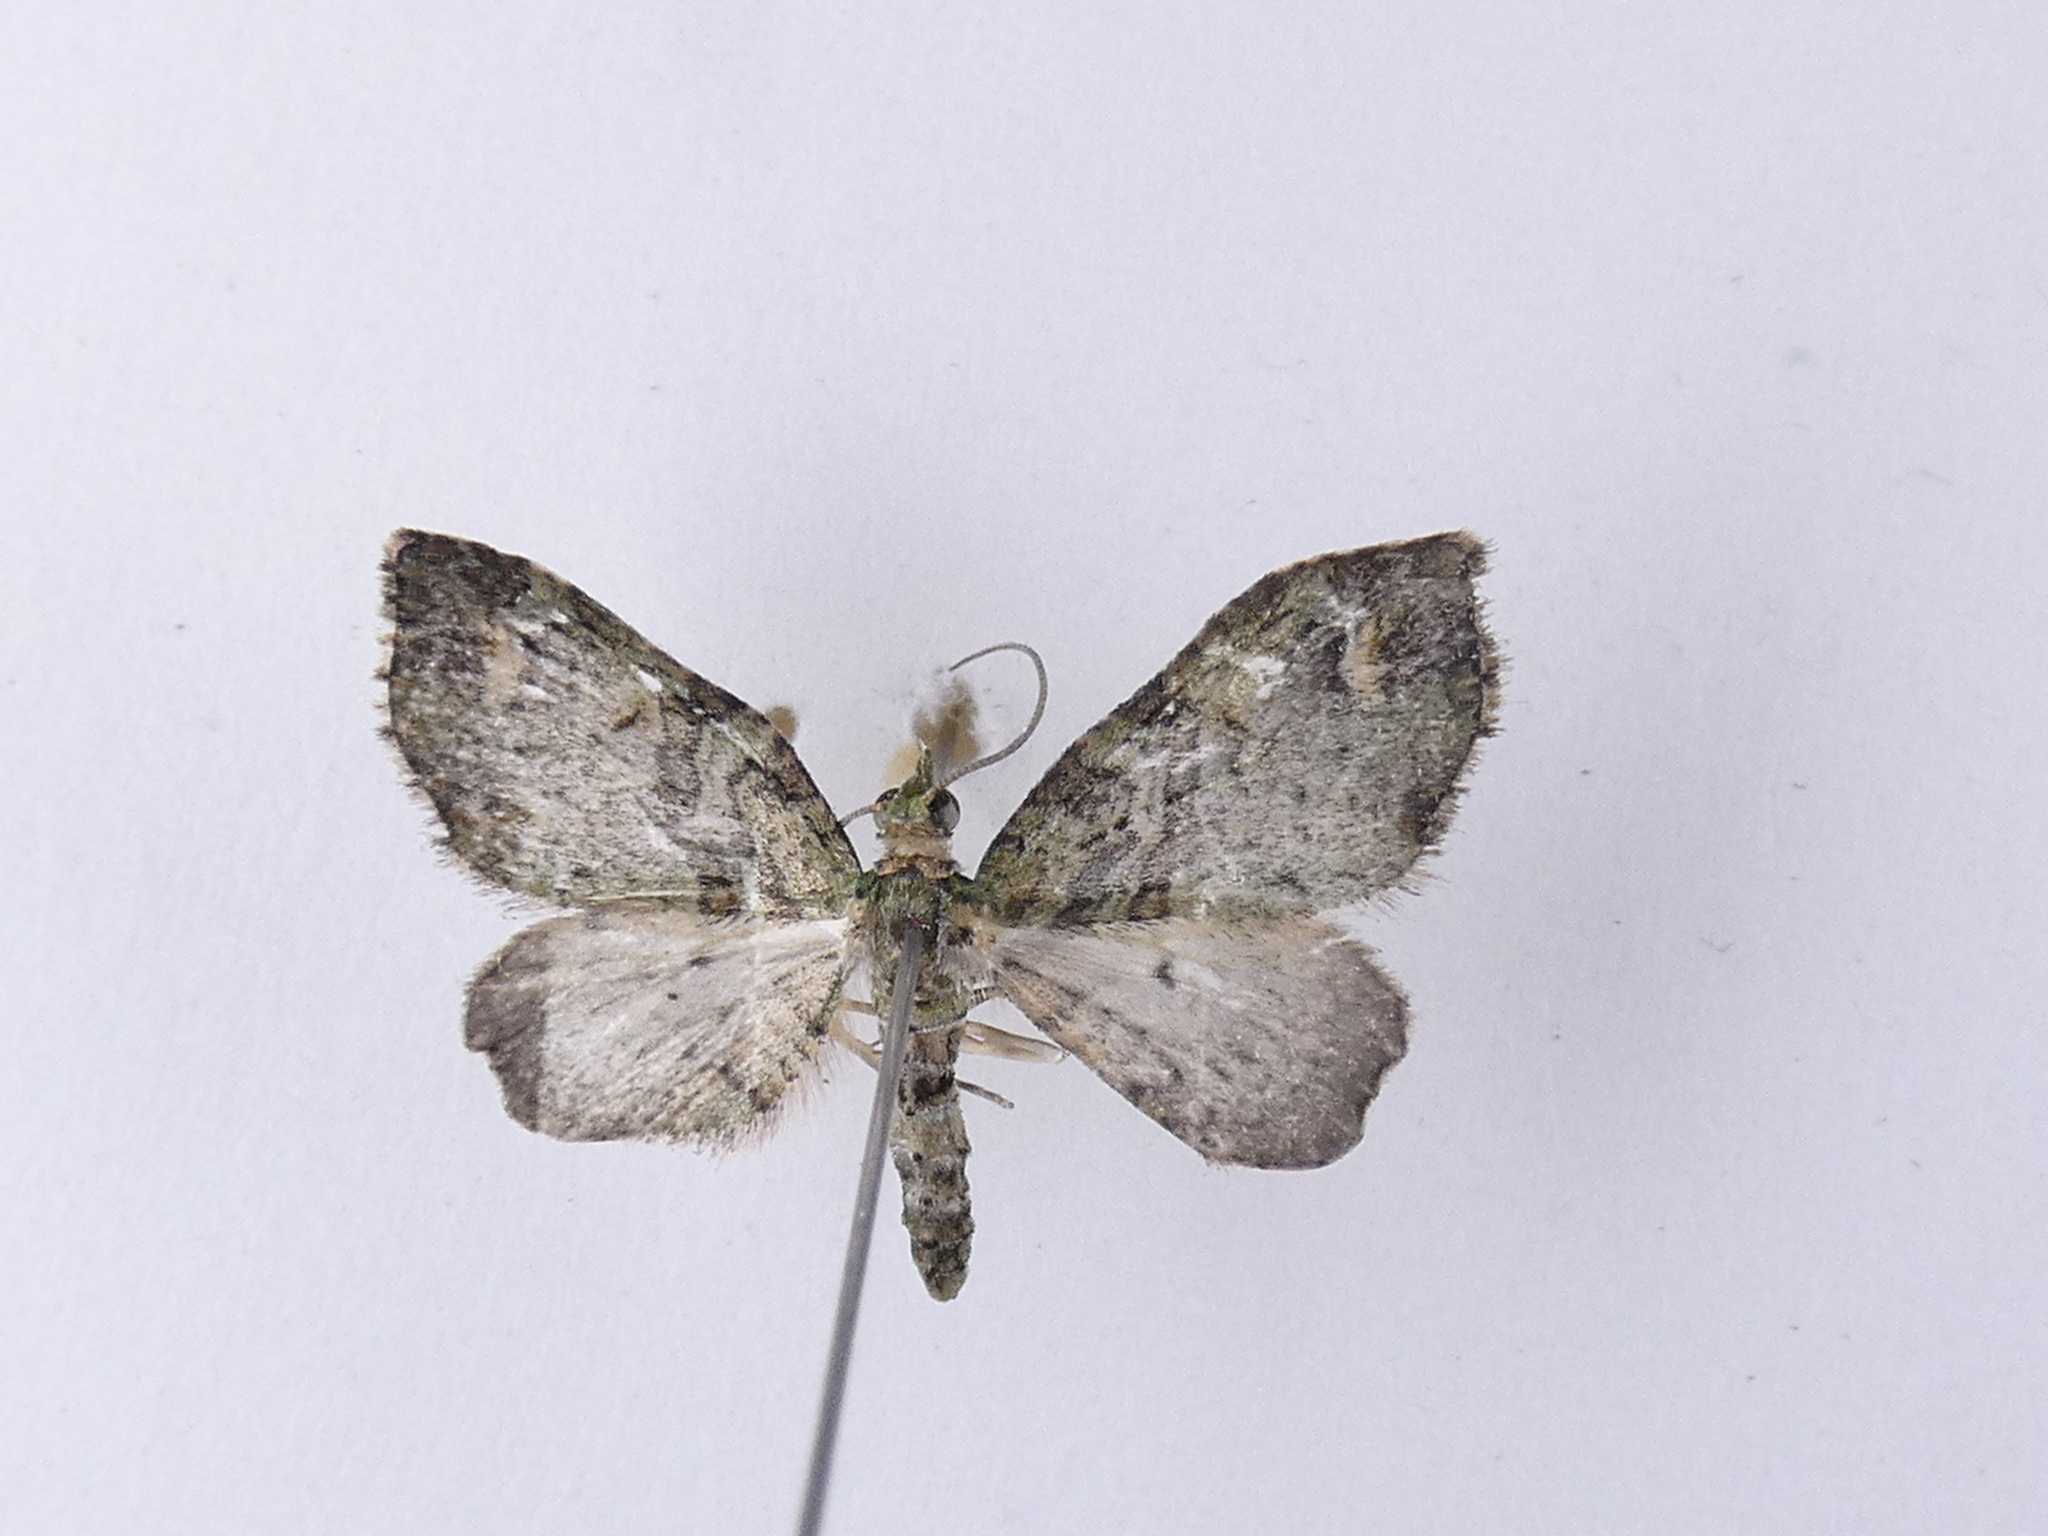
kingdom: Animalia
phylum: Arthropoda
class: Insecta
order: Lepidoptera
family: Geometridae
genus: Idaea
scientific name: Idaea mutanda
